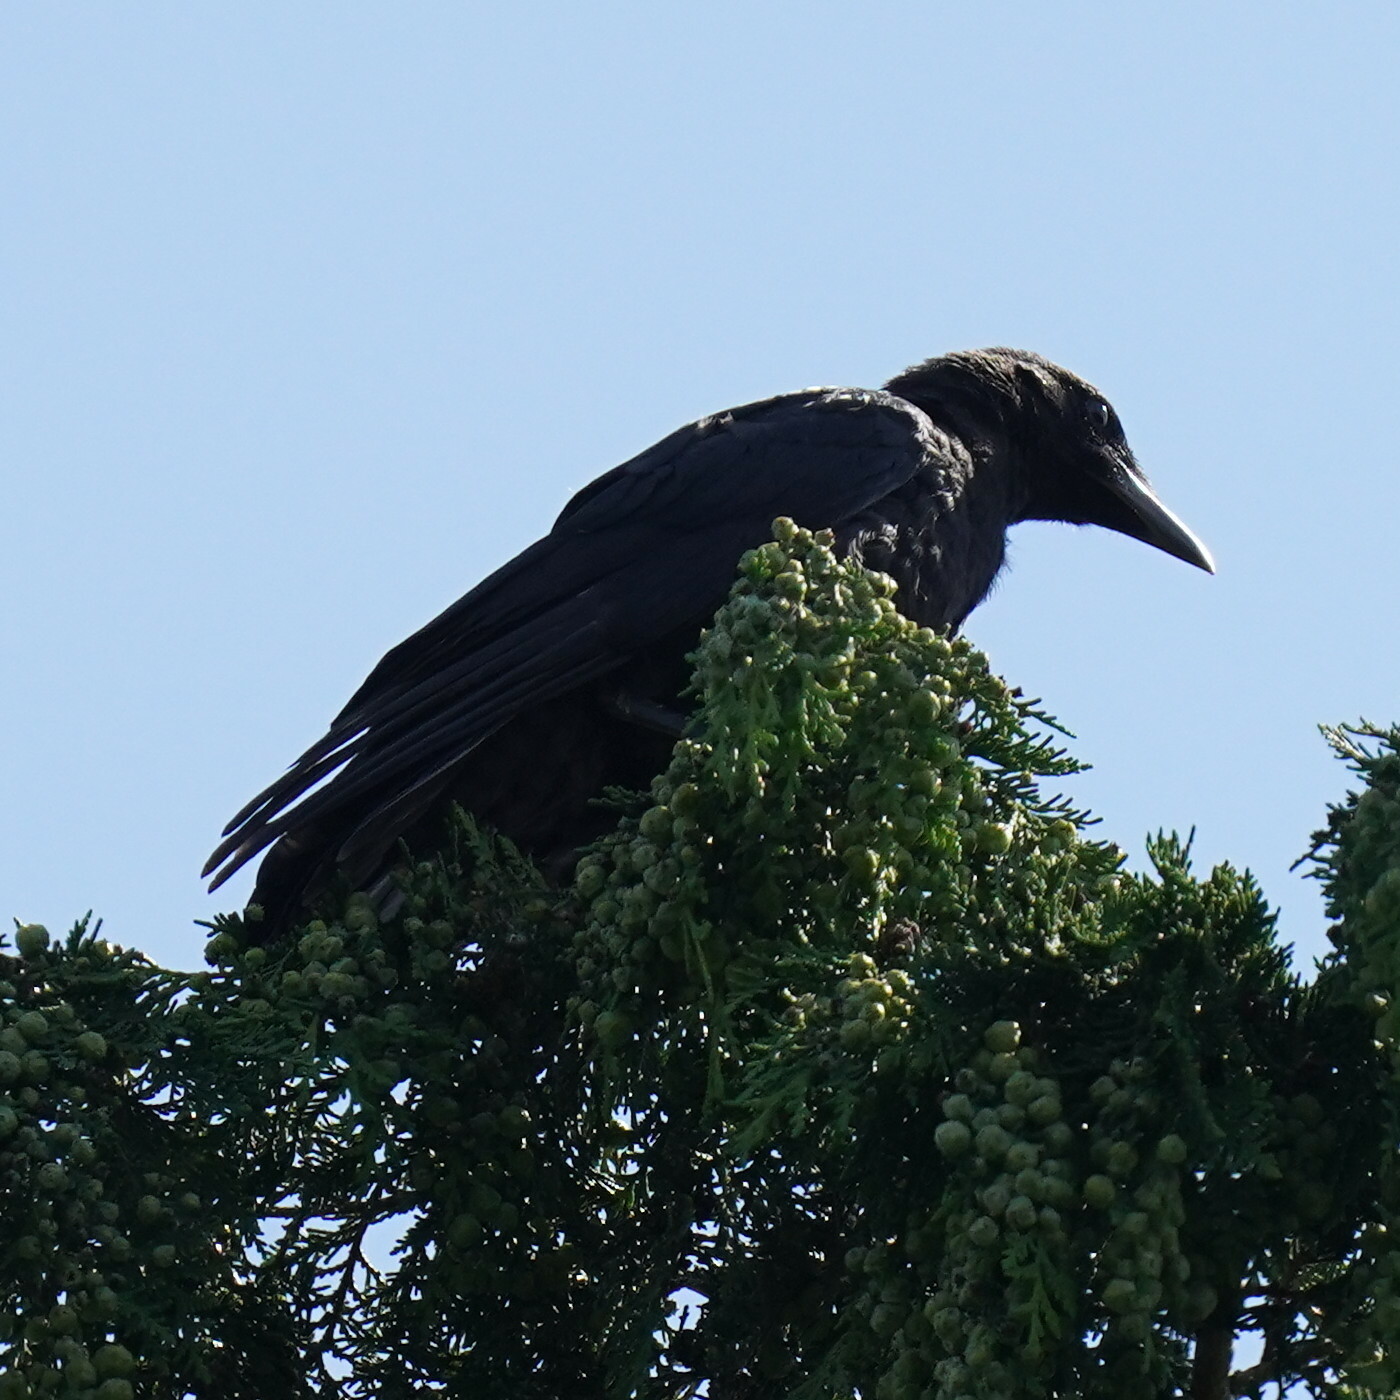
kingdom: Animalia
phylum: Chordata
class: Aves
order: Passeriformes
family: Corvidae
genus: Corvus
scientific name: Corvus corone
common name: Carrion crow
